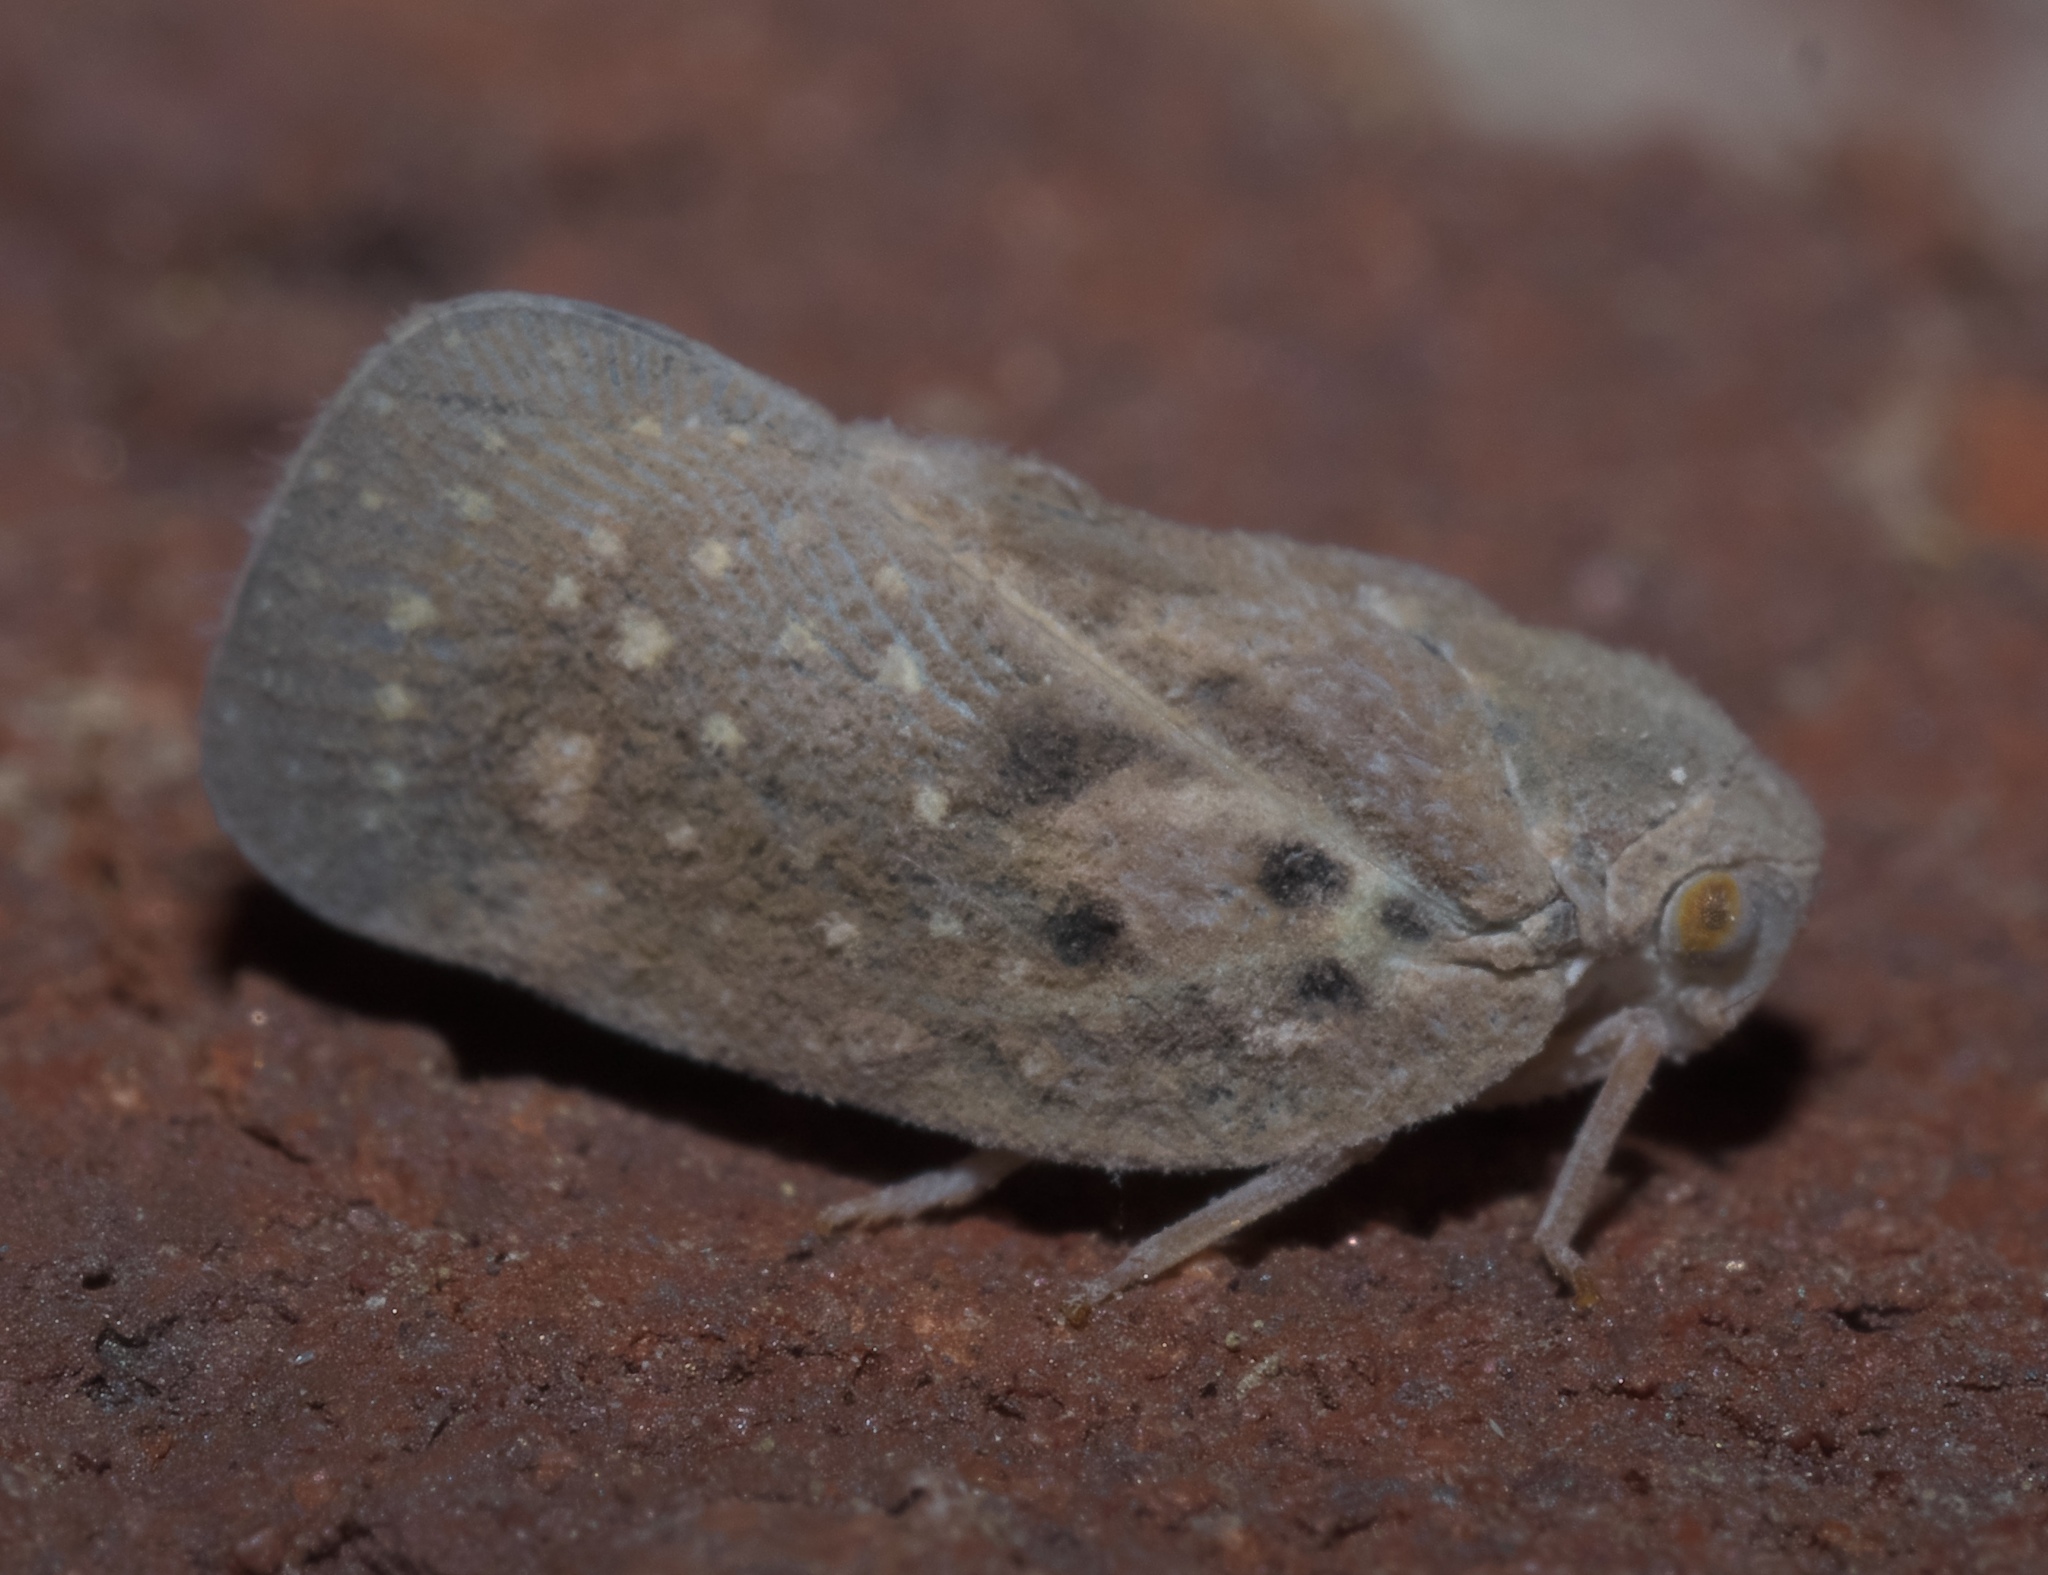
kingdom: Animalia
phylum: Arthropoda
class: Insecta
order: Hemiptera
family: Flatidae
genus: Metcalfa
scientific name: Metcalfa pruinosa
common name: Citrus flatid planthopper
